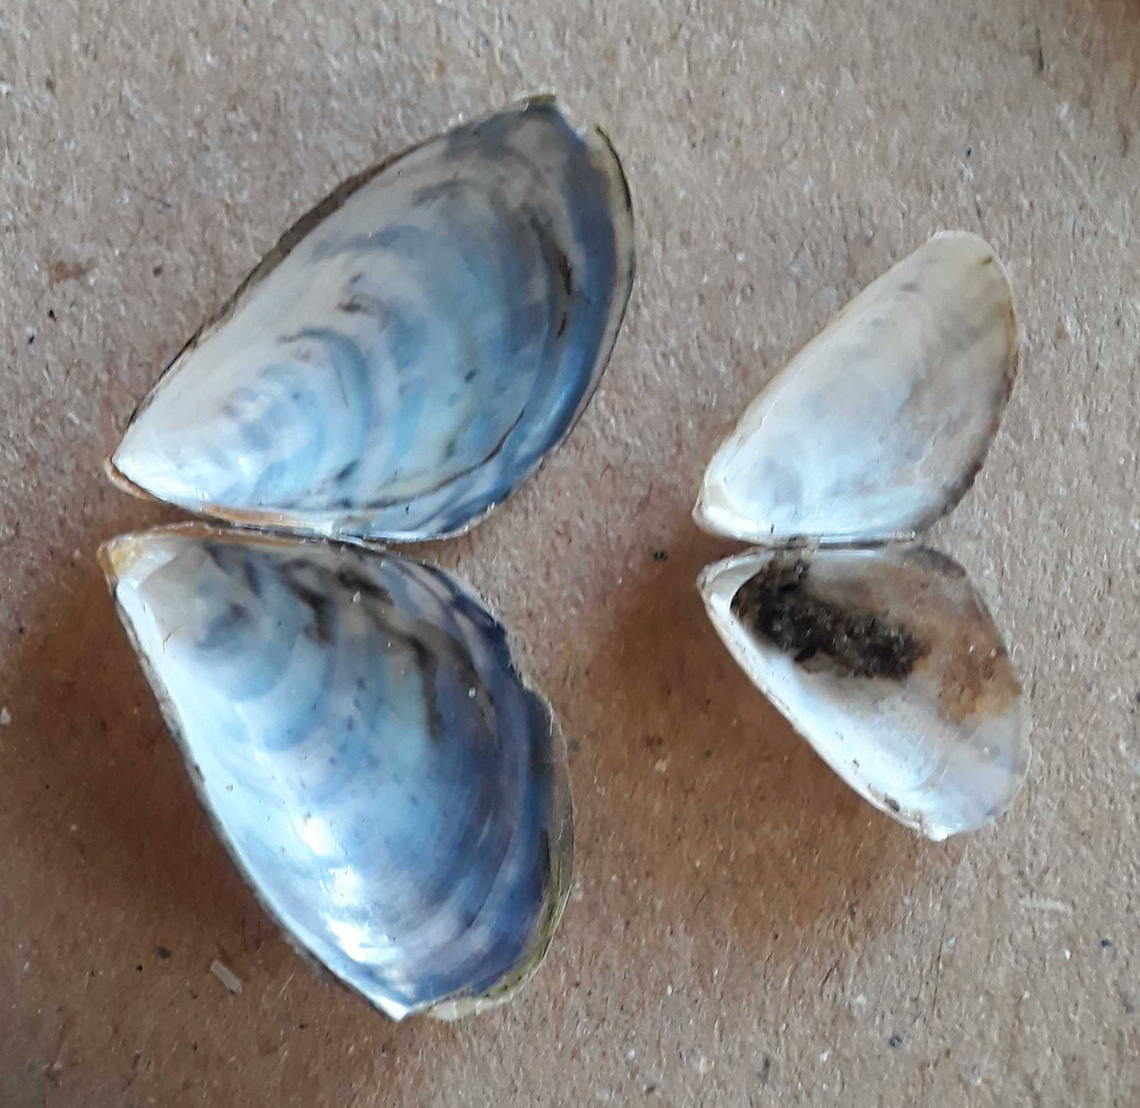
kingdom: Animalia
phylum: Mollusca
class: Bivalvia
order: Myida
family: Dreissenidae
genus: Dreissena
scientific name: Dreissena bugensis
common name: Quagga mussel
